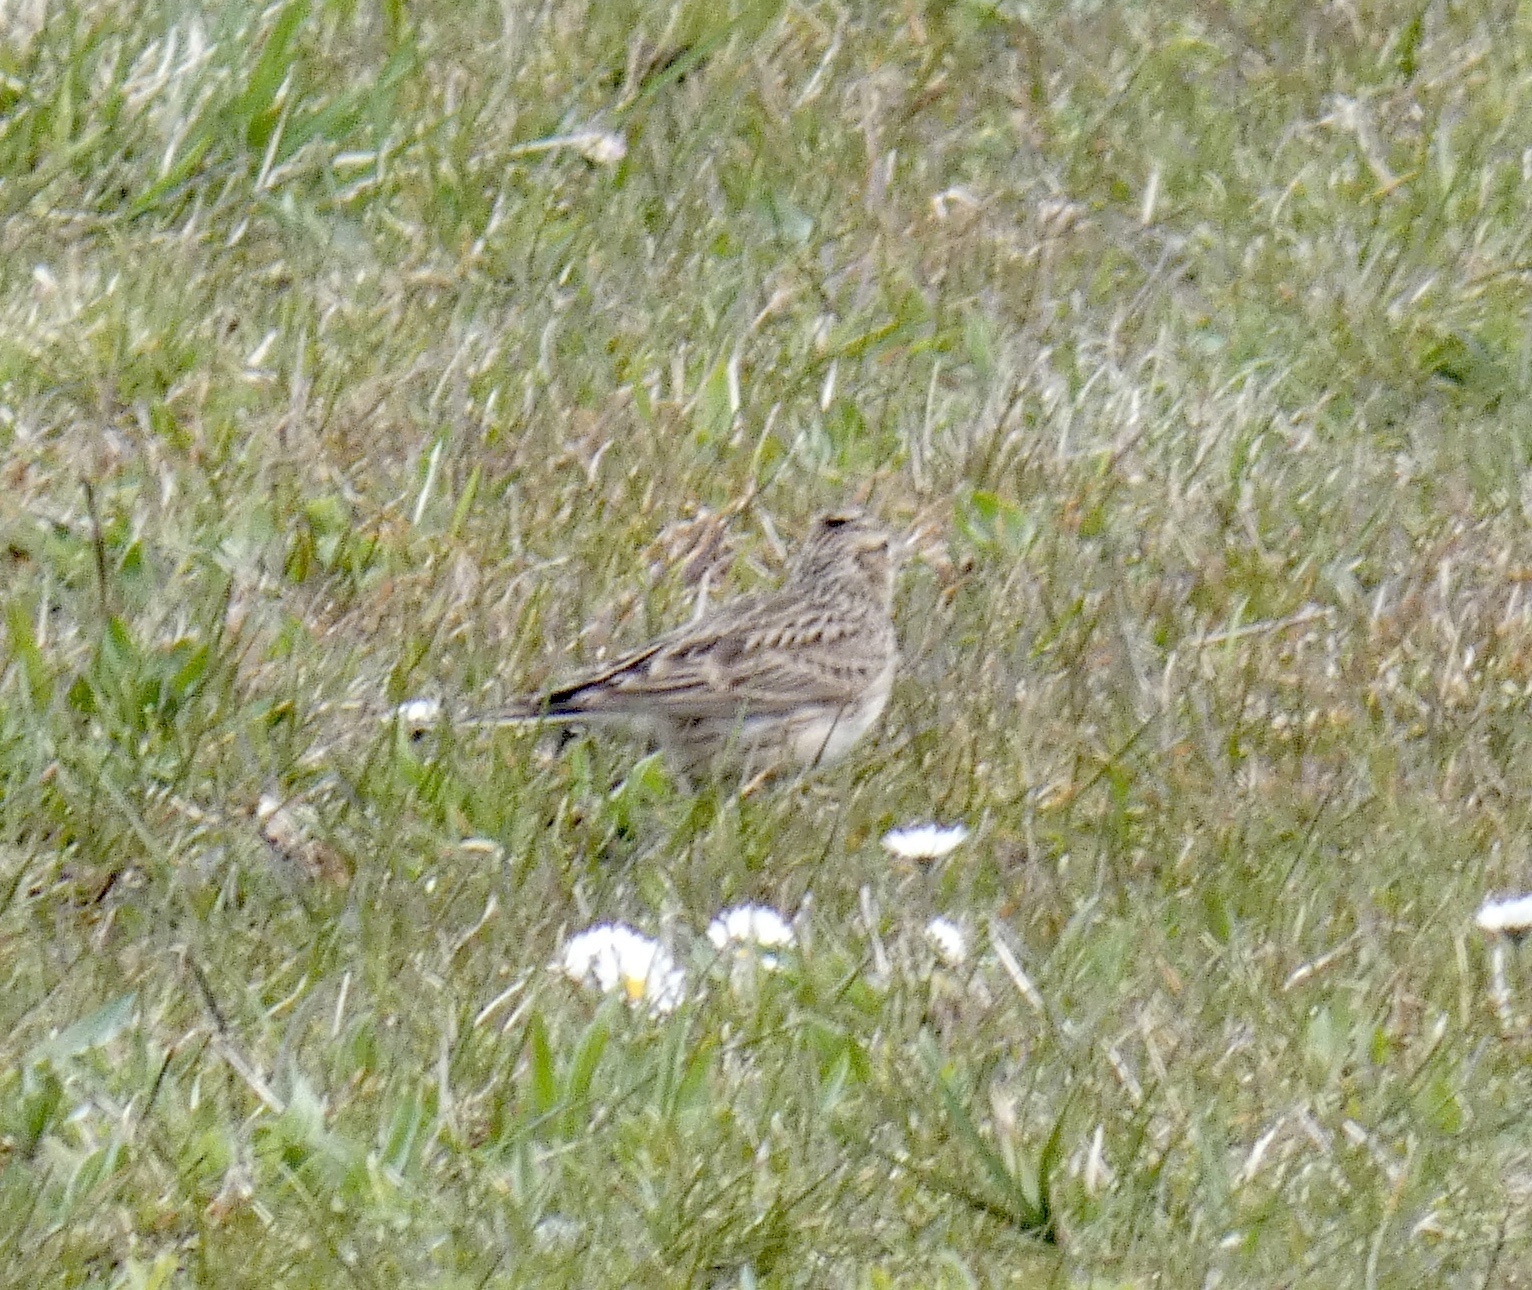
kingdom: Animalia
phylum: Chordata
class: Aves
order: Passeriformes
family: Alaudidae
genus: Alauda
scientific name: Alauda arvensis
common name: Eurasian skylark
